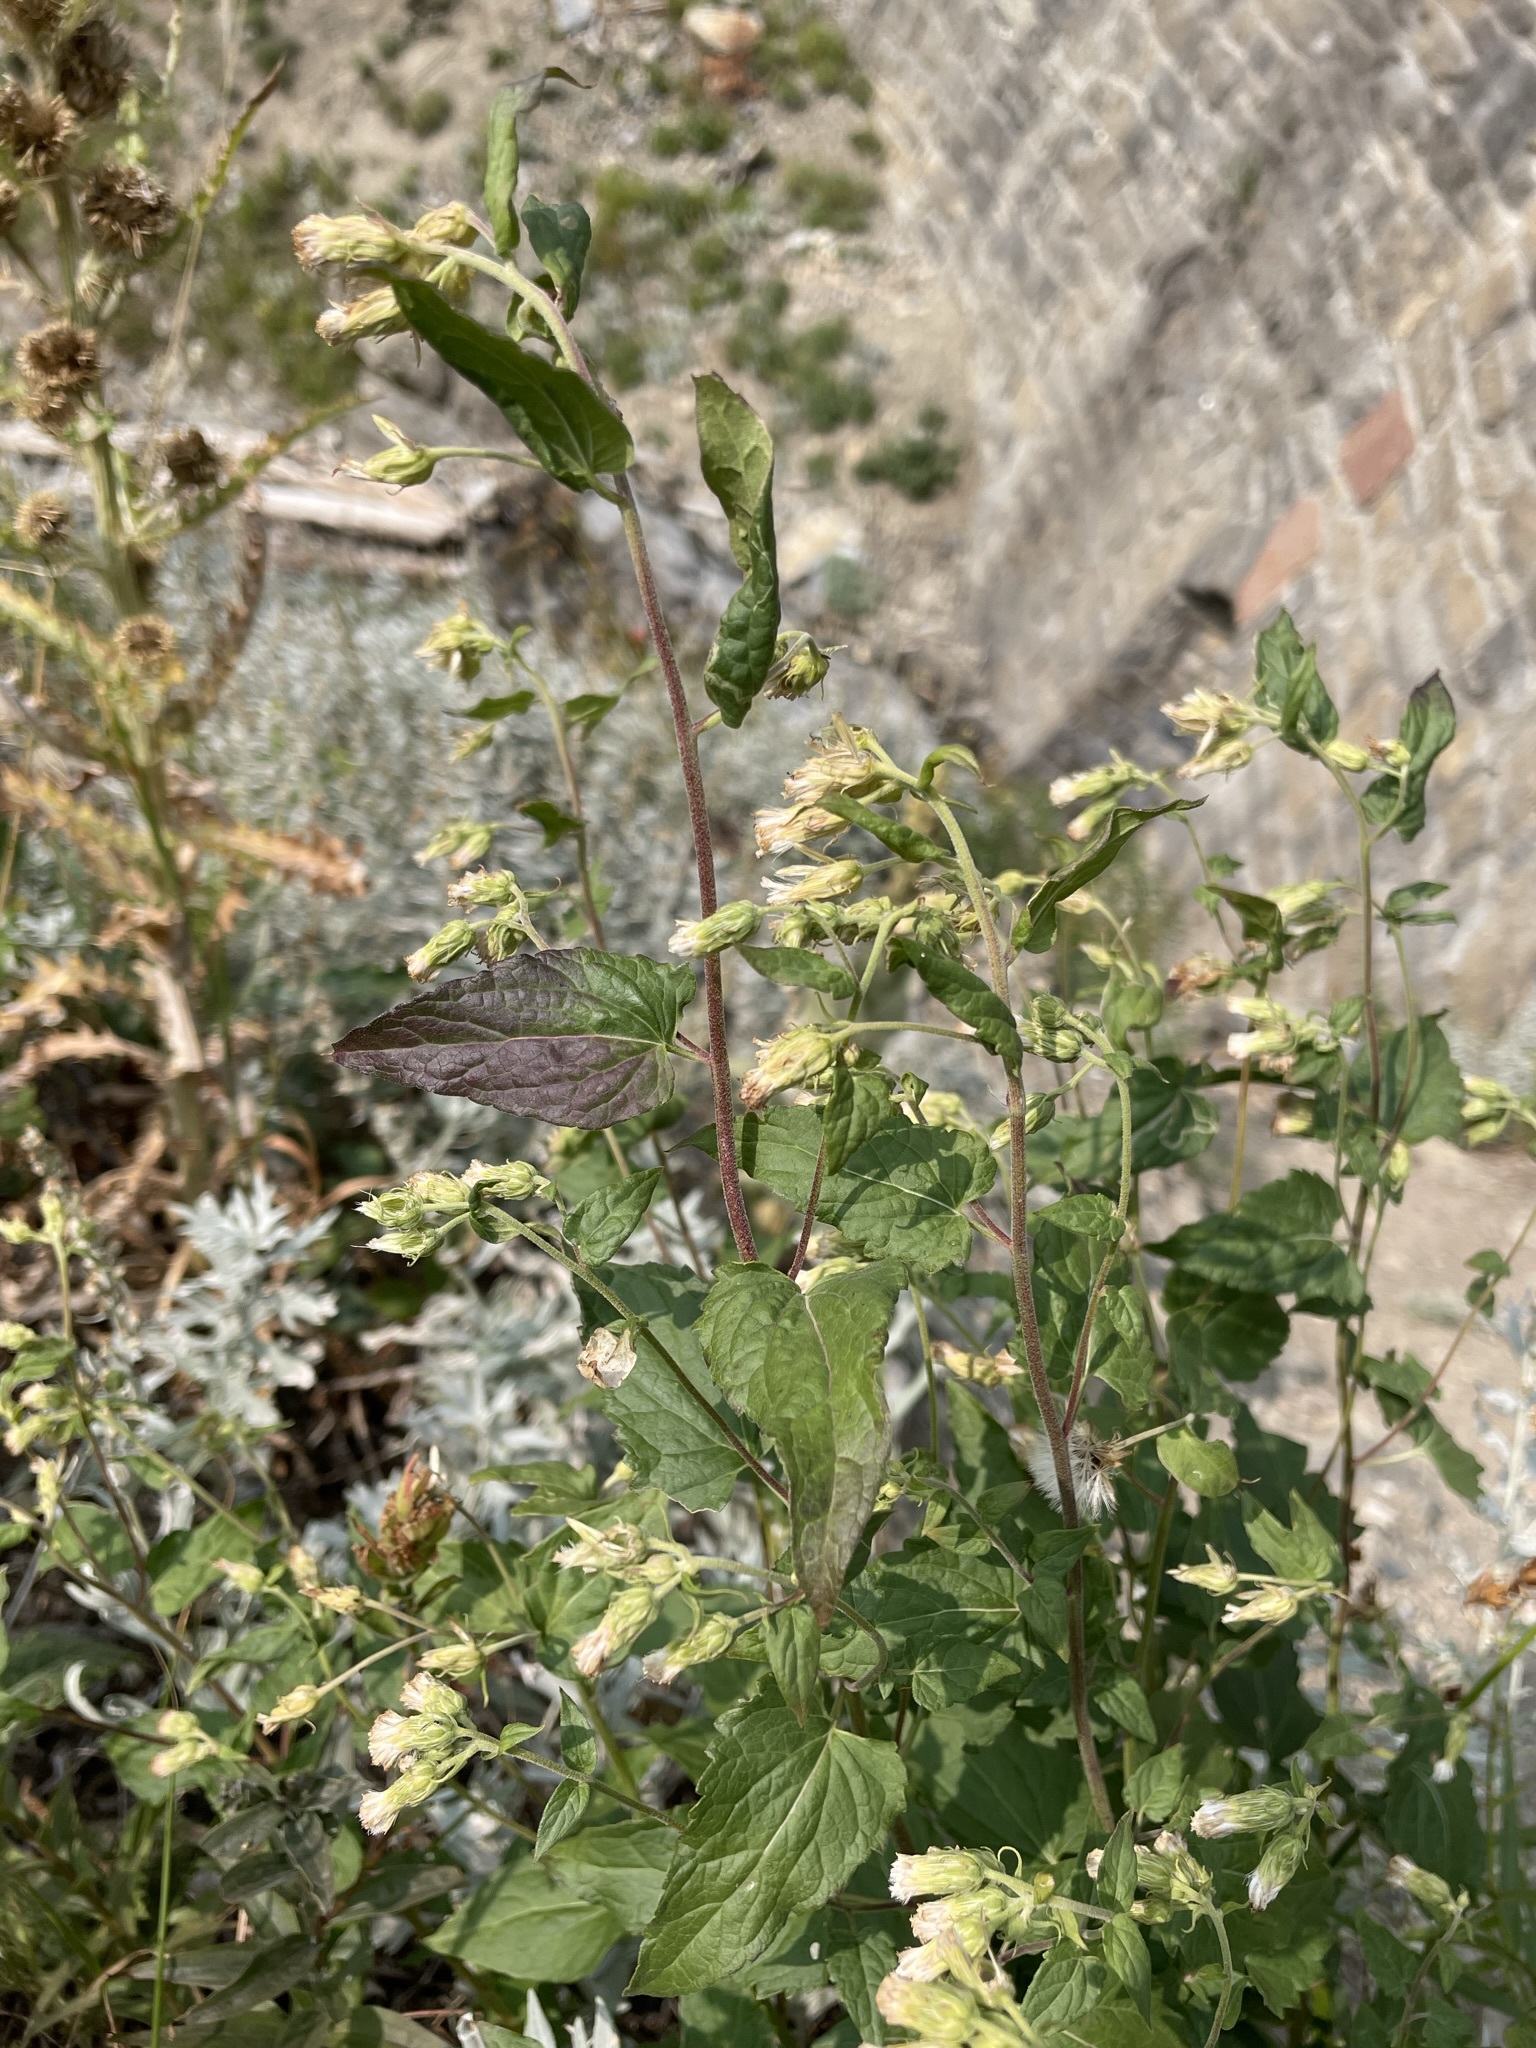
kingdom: Plantae
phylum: Tracheophyta
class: Magnoliopsida
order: Asterales
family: Asteraceae
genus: Brickellia
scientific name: Brickellia grandiflora
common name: Large-flowered brickellia
